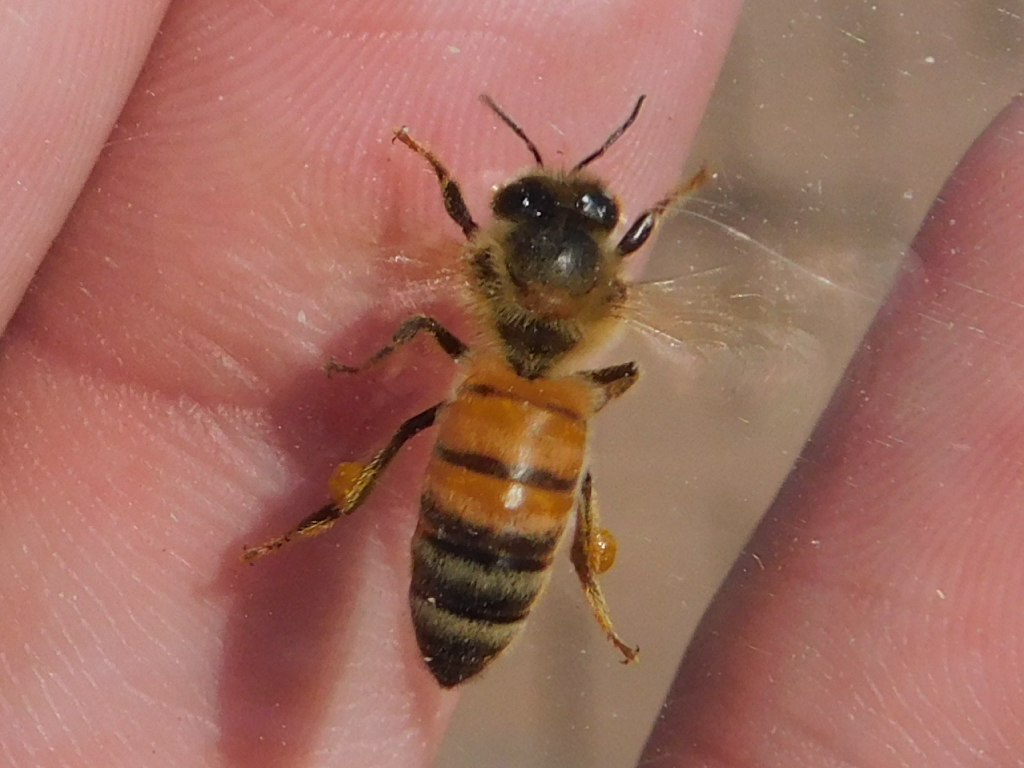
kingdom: Animalia
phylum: Arthropoda
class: Insecta
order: Hymenoptera
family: Apidae
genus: Apis
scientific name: Apis mellifera
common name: Honey bee
